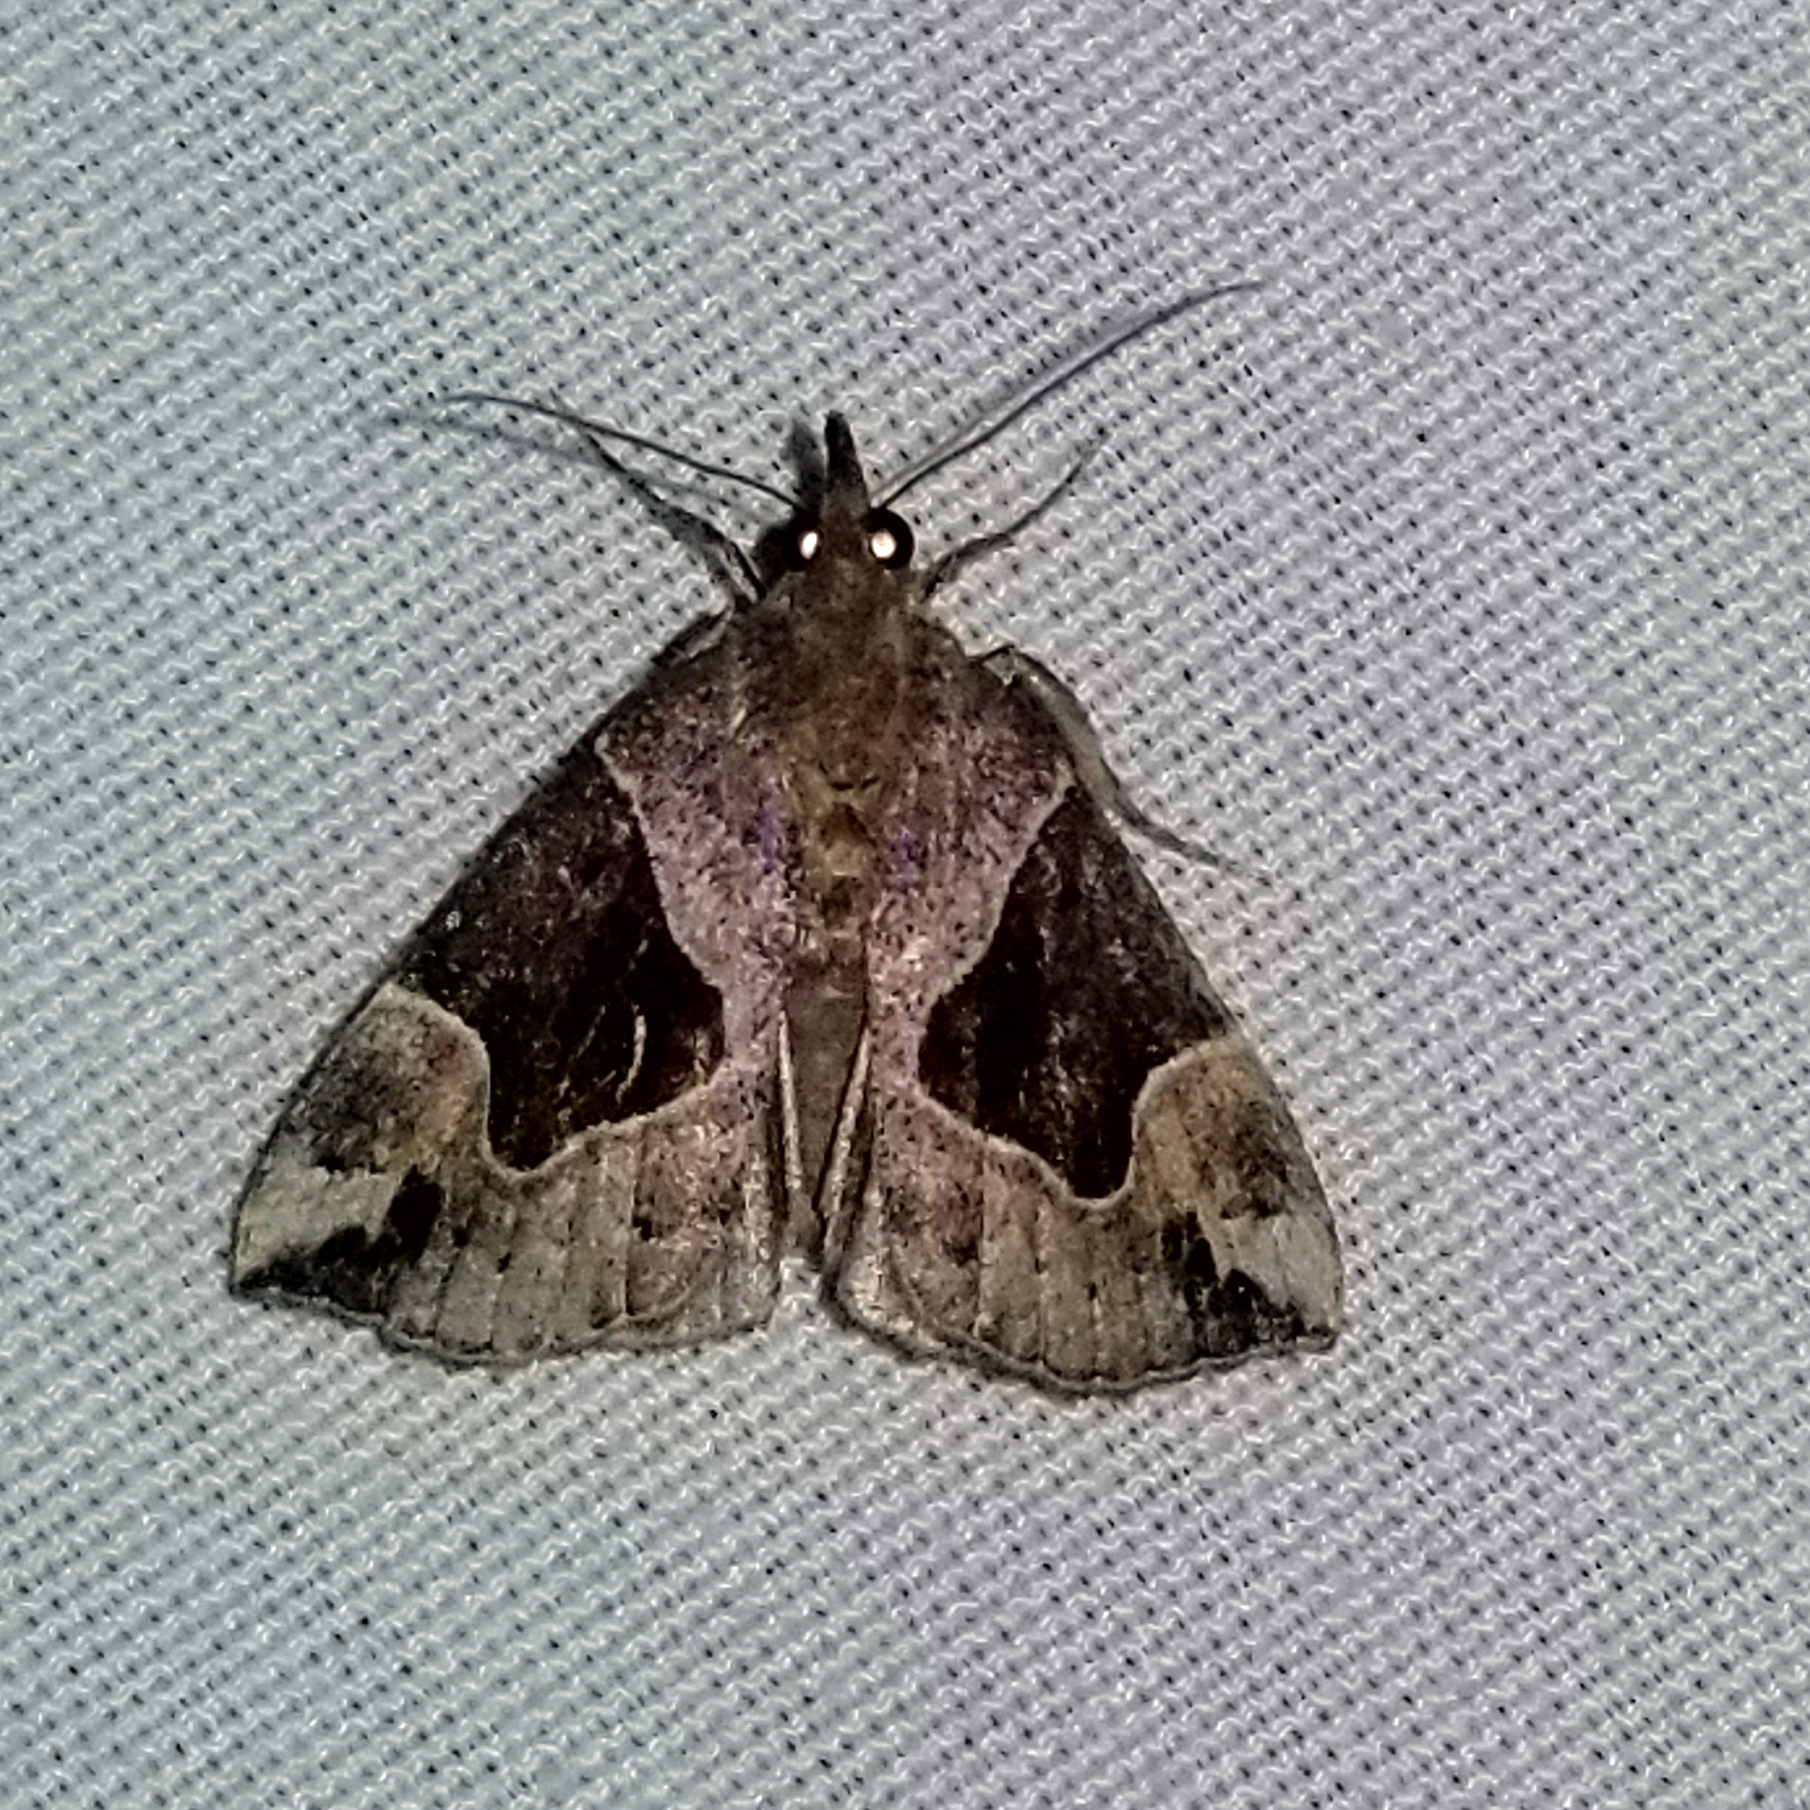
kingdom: Animalia
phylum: Arthropoda
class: Insecta
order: Lepidoptera
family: Erebidae
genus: Hypena
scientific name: Hypena manalis
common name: Flowing-line bomolocha moth
